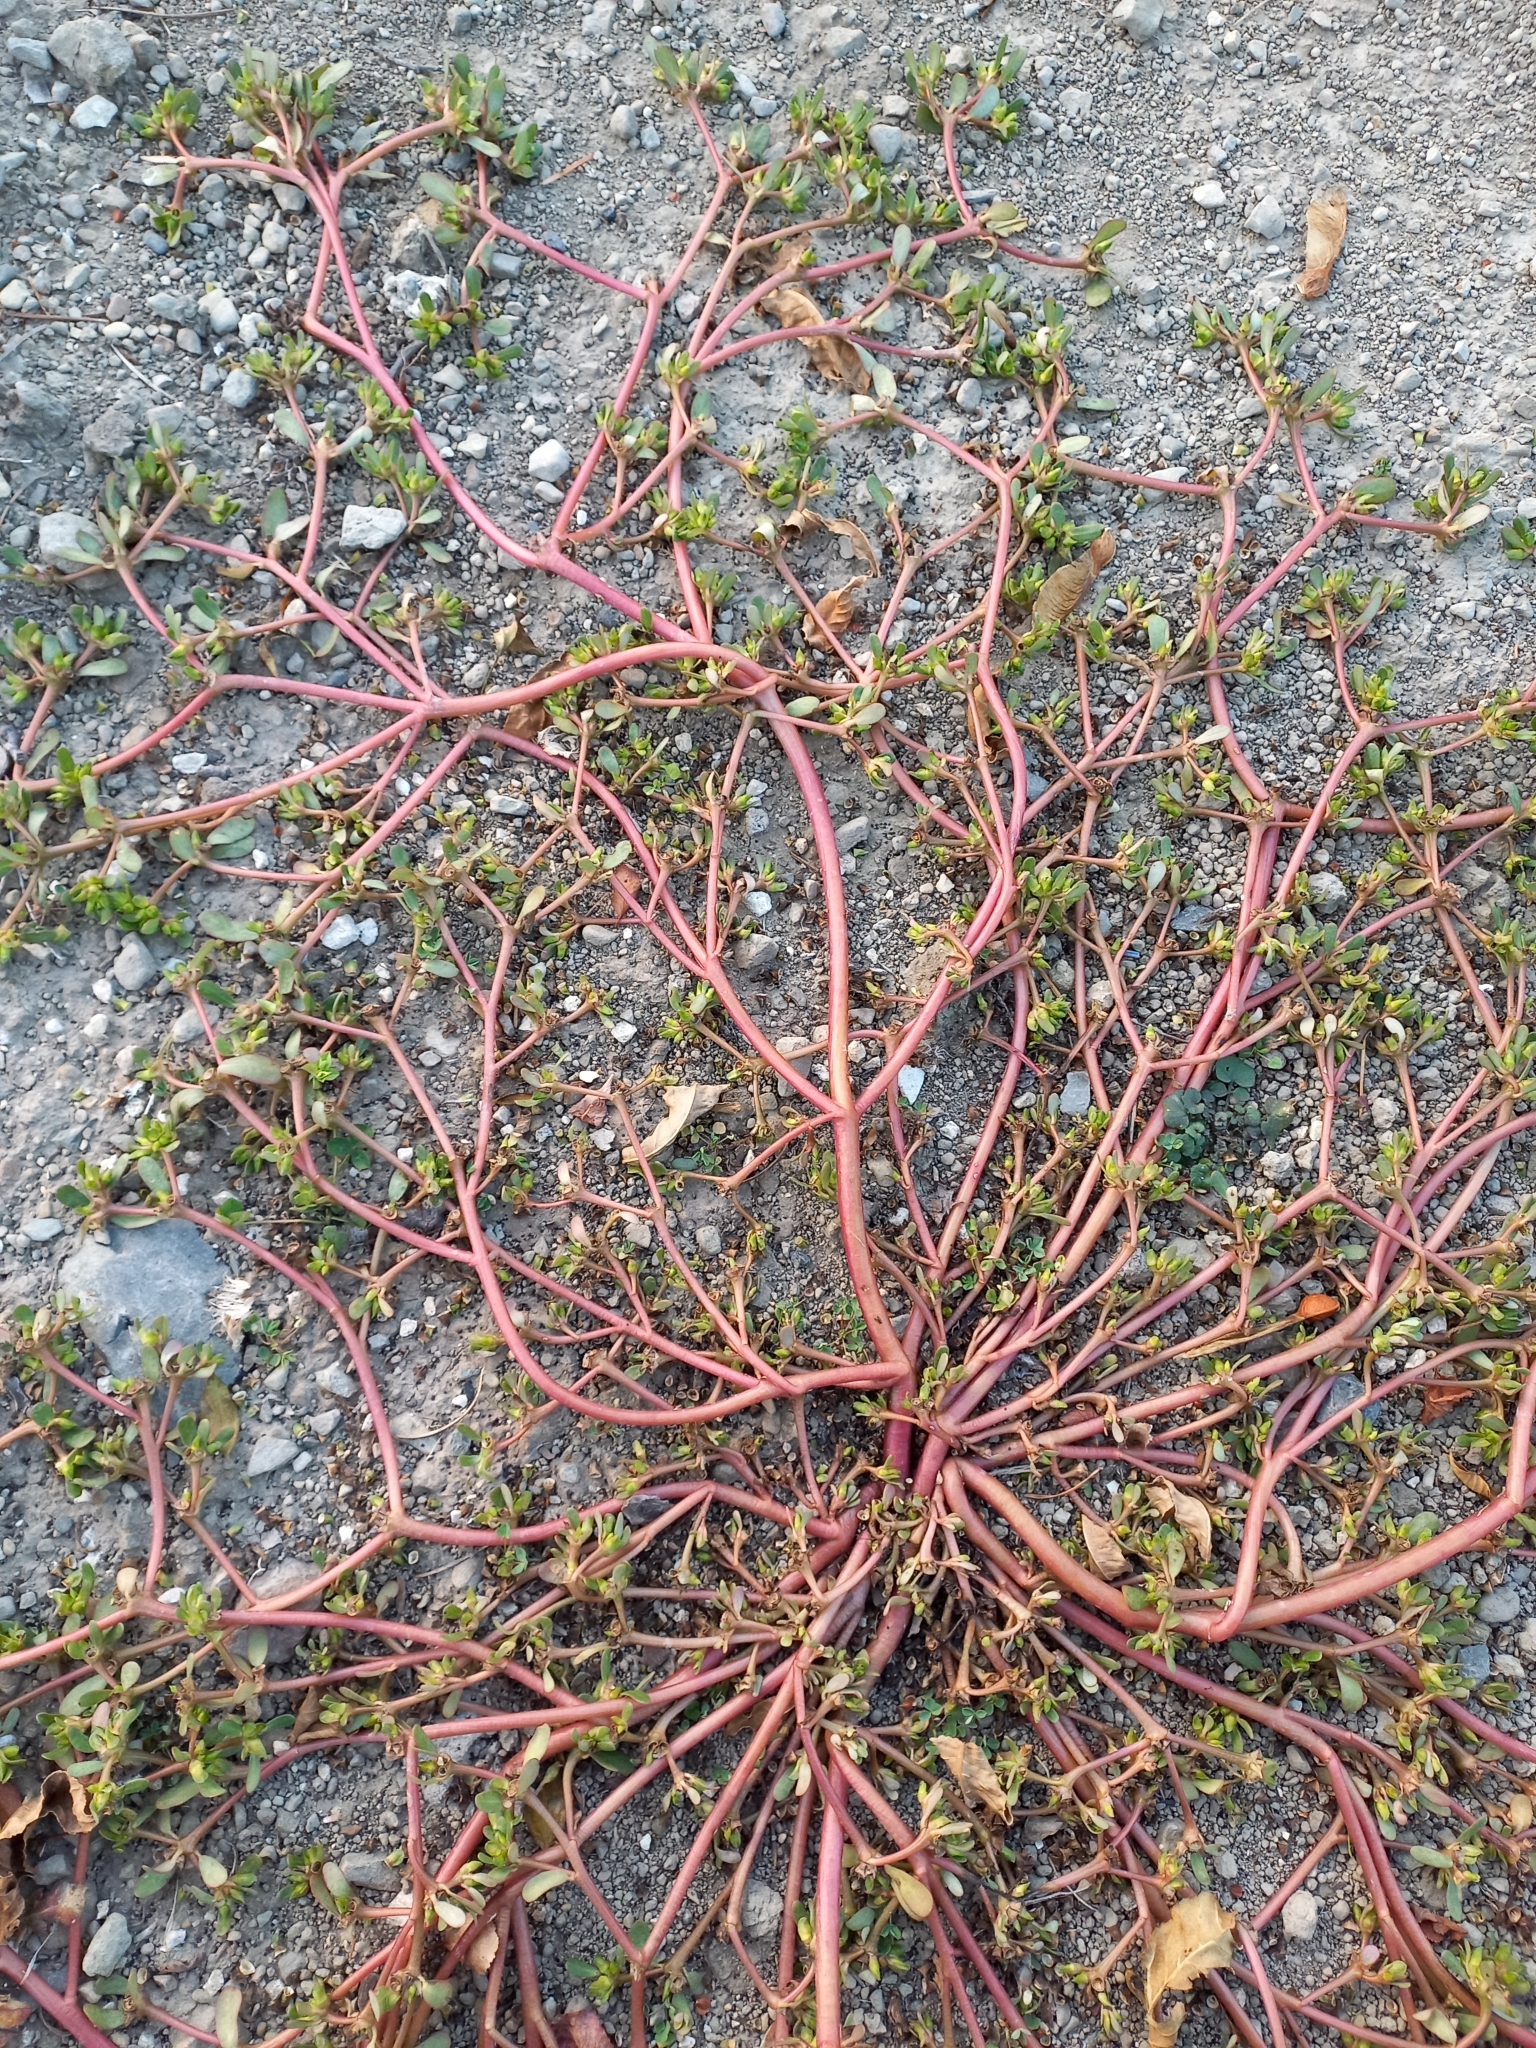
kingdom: Plantae
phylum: Tracheophyta
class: Magnoliopsida
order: Caryophyllales
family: Portulacaceae
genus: Portulaca
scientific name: Portulaca oleracea
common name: Common purslane
